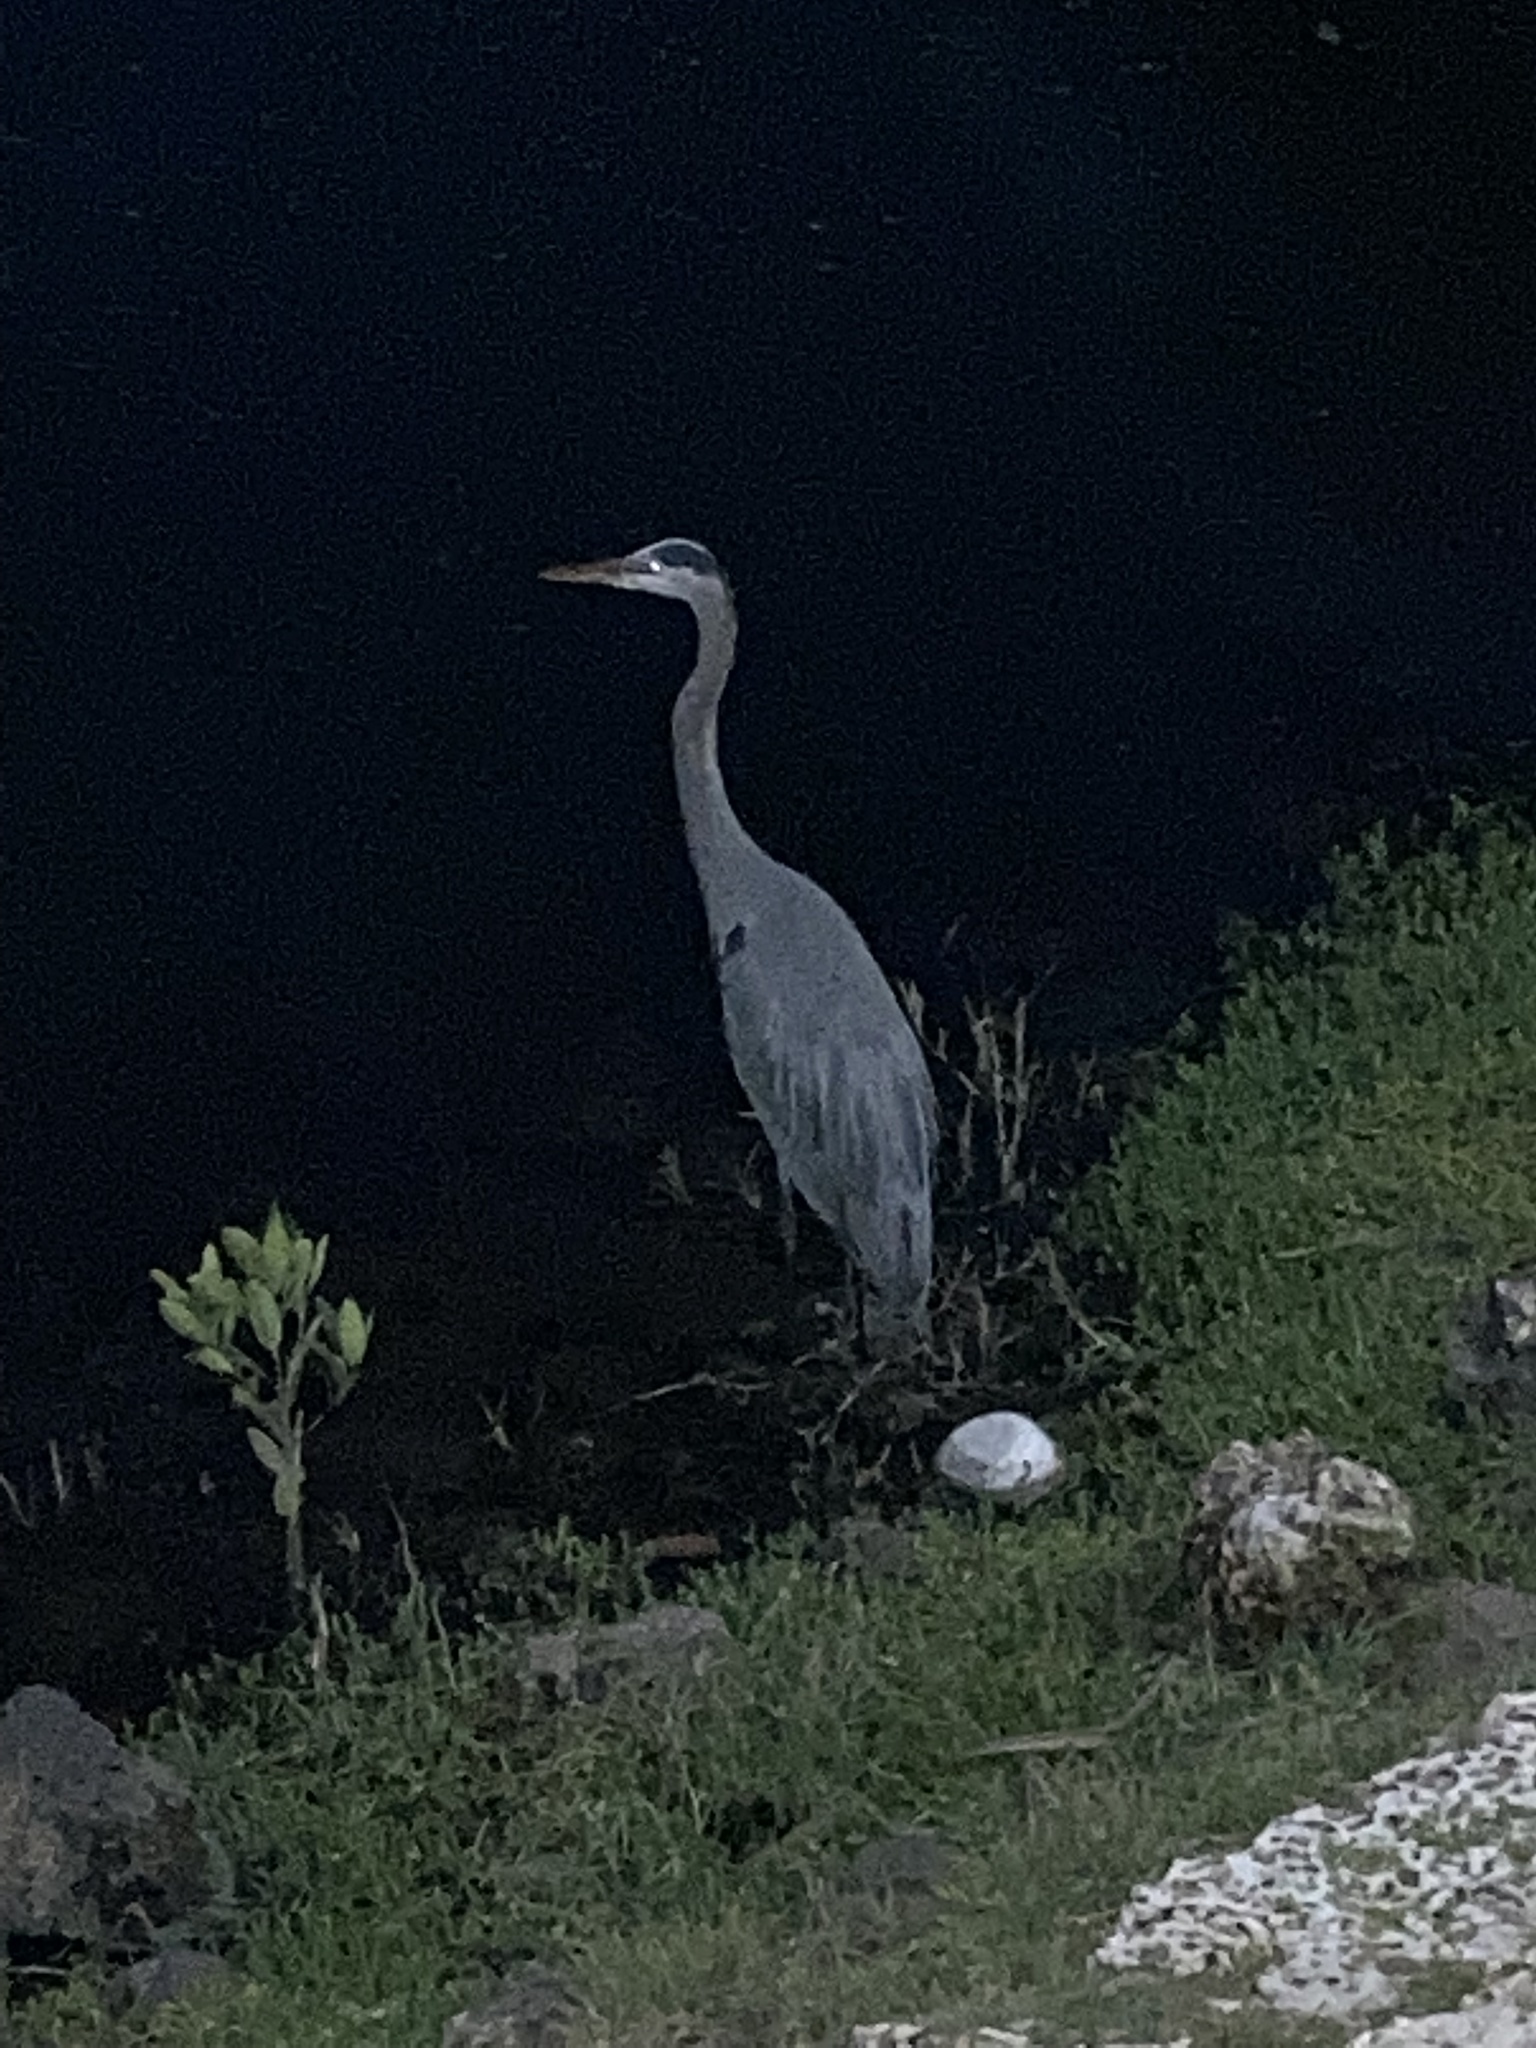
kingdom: Animalia
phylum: Chordata
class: Aves
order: Pelecaniformes
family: Ardeidae
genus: Ardea
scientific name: Ardea herodias
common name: Great blue heron
